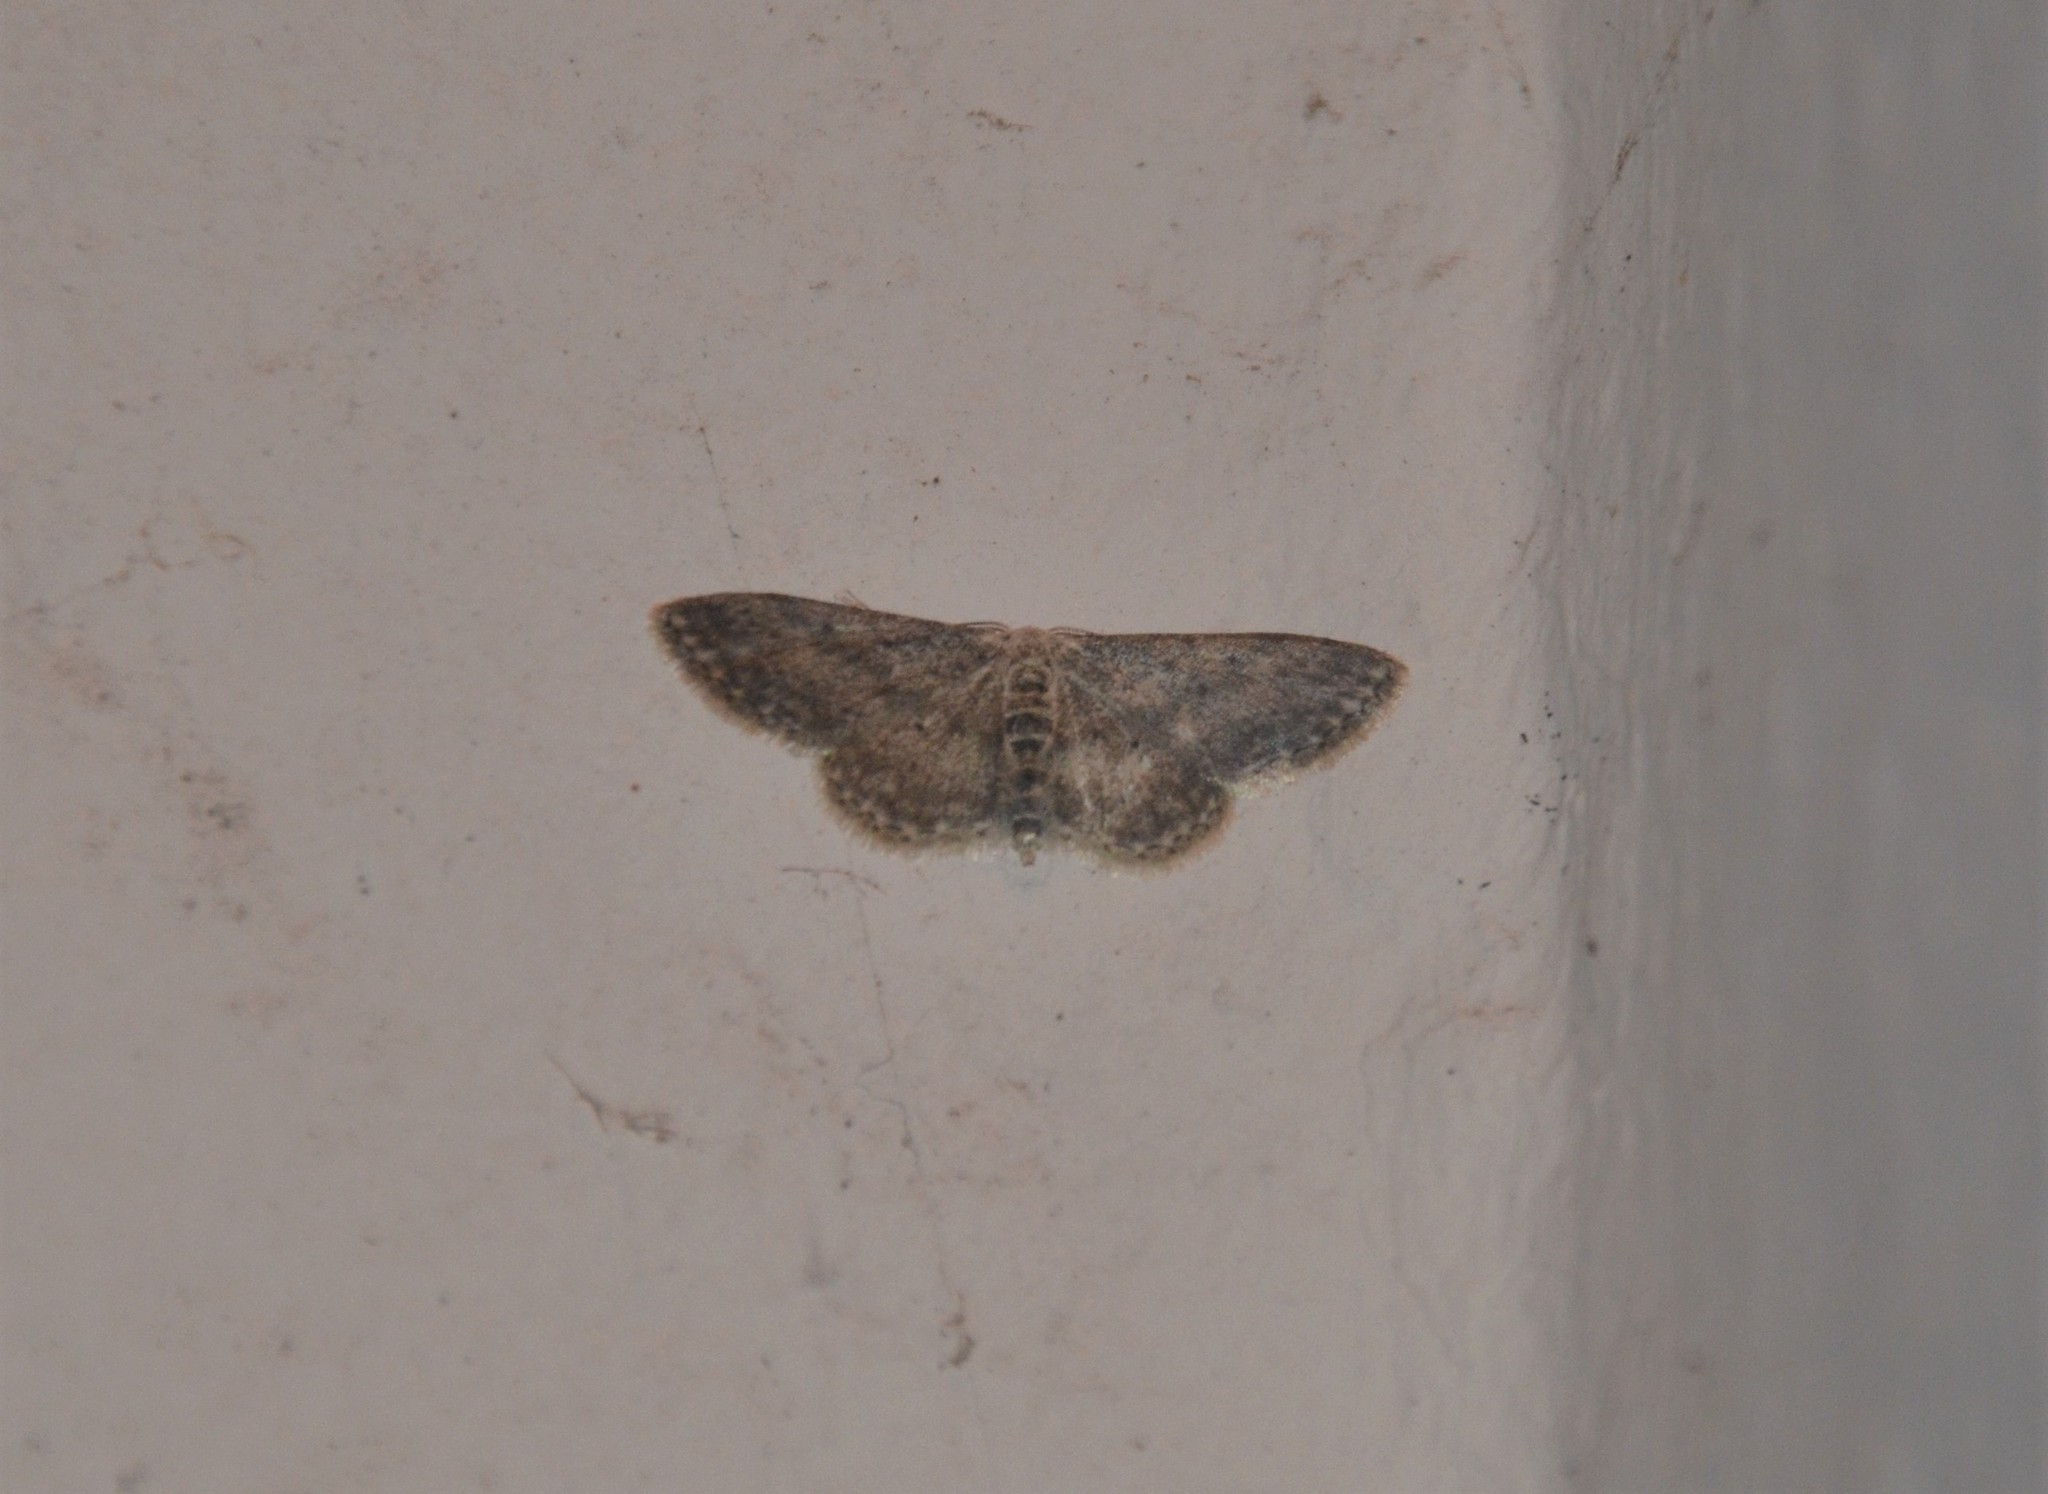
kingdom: Animalia
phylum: Arthropoda
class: Insecta
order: Lepidoptera
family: Geometridae
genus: Idaea
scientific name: Idaea seriata
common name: Small dusty wave
